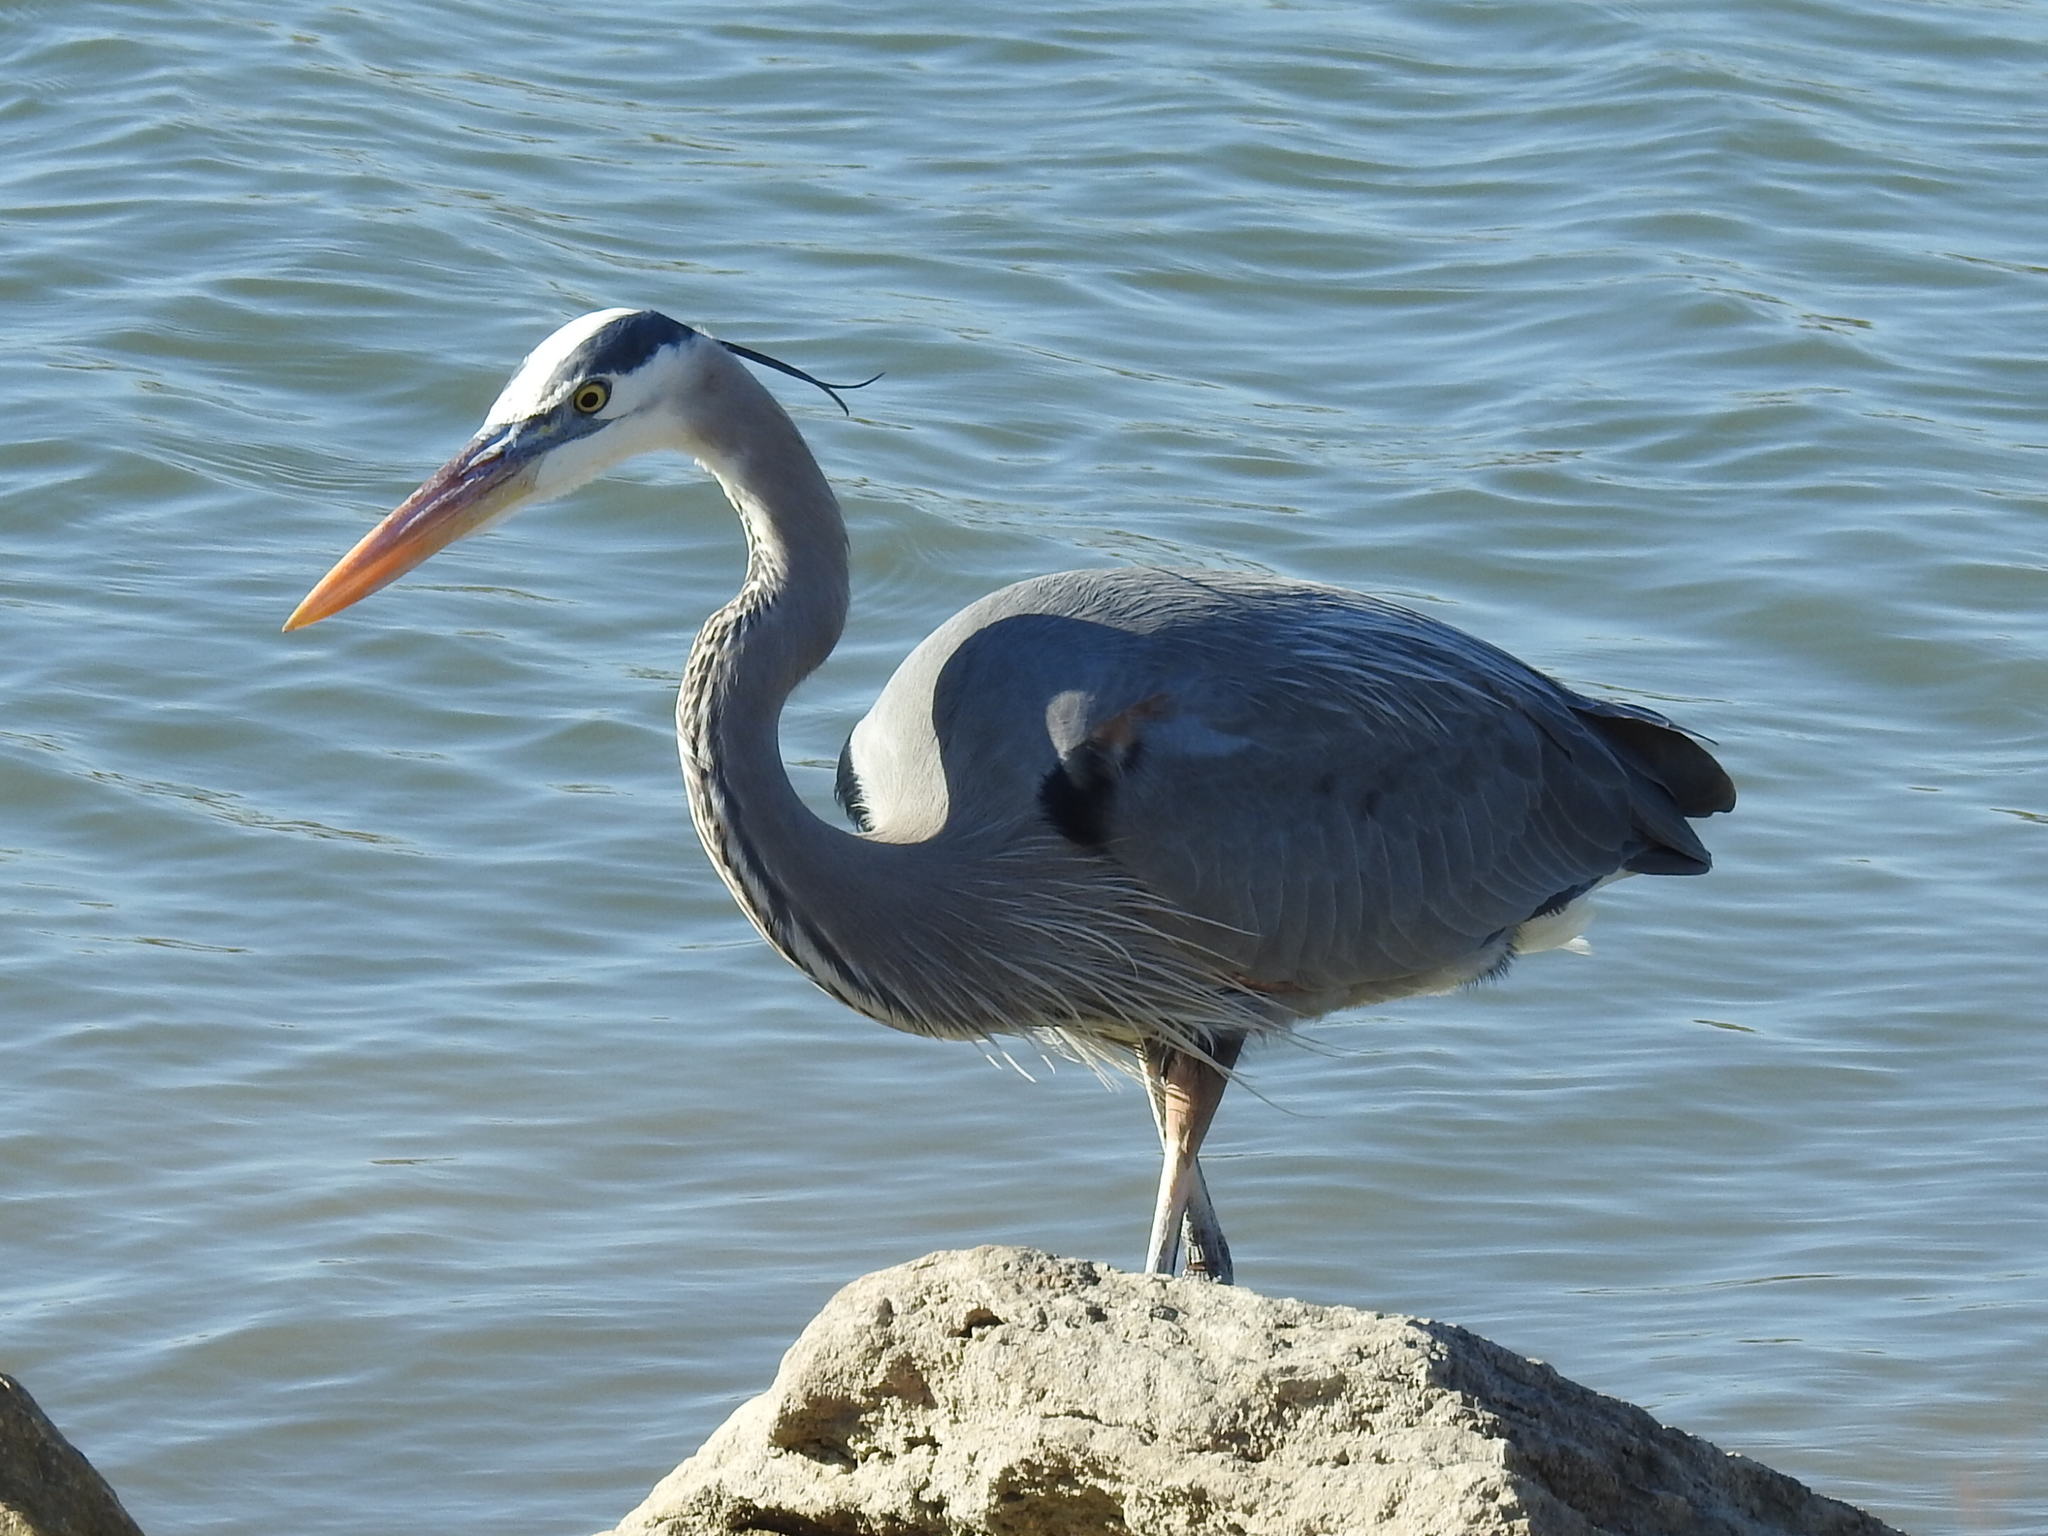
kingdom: Animalia
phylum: Chordata
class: Aves
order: Pelecaniformes
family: Ardeidae
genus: Ardea
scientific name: Ardea herodias
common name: Great blue heron
